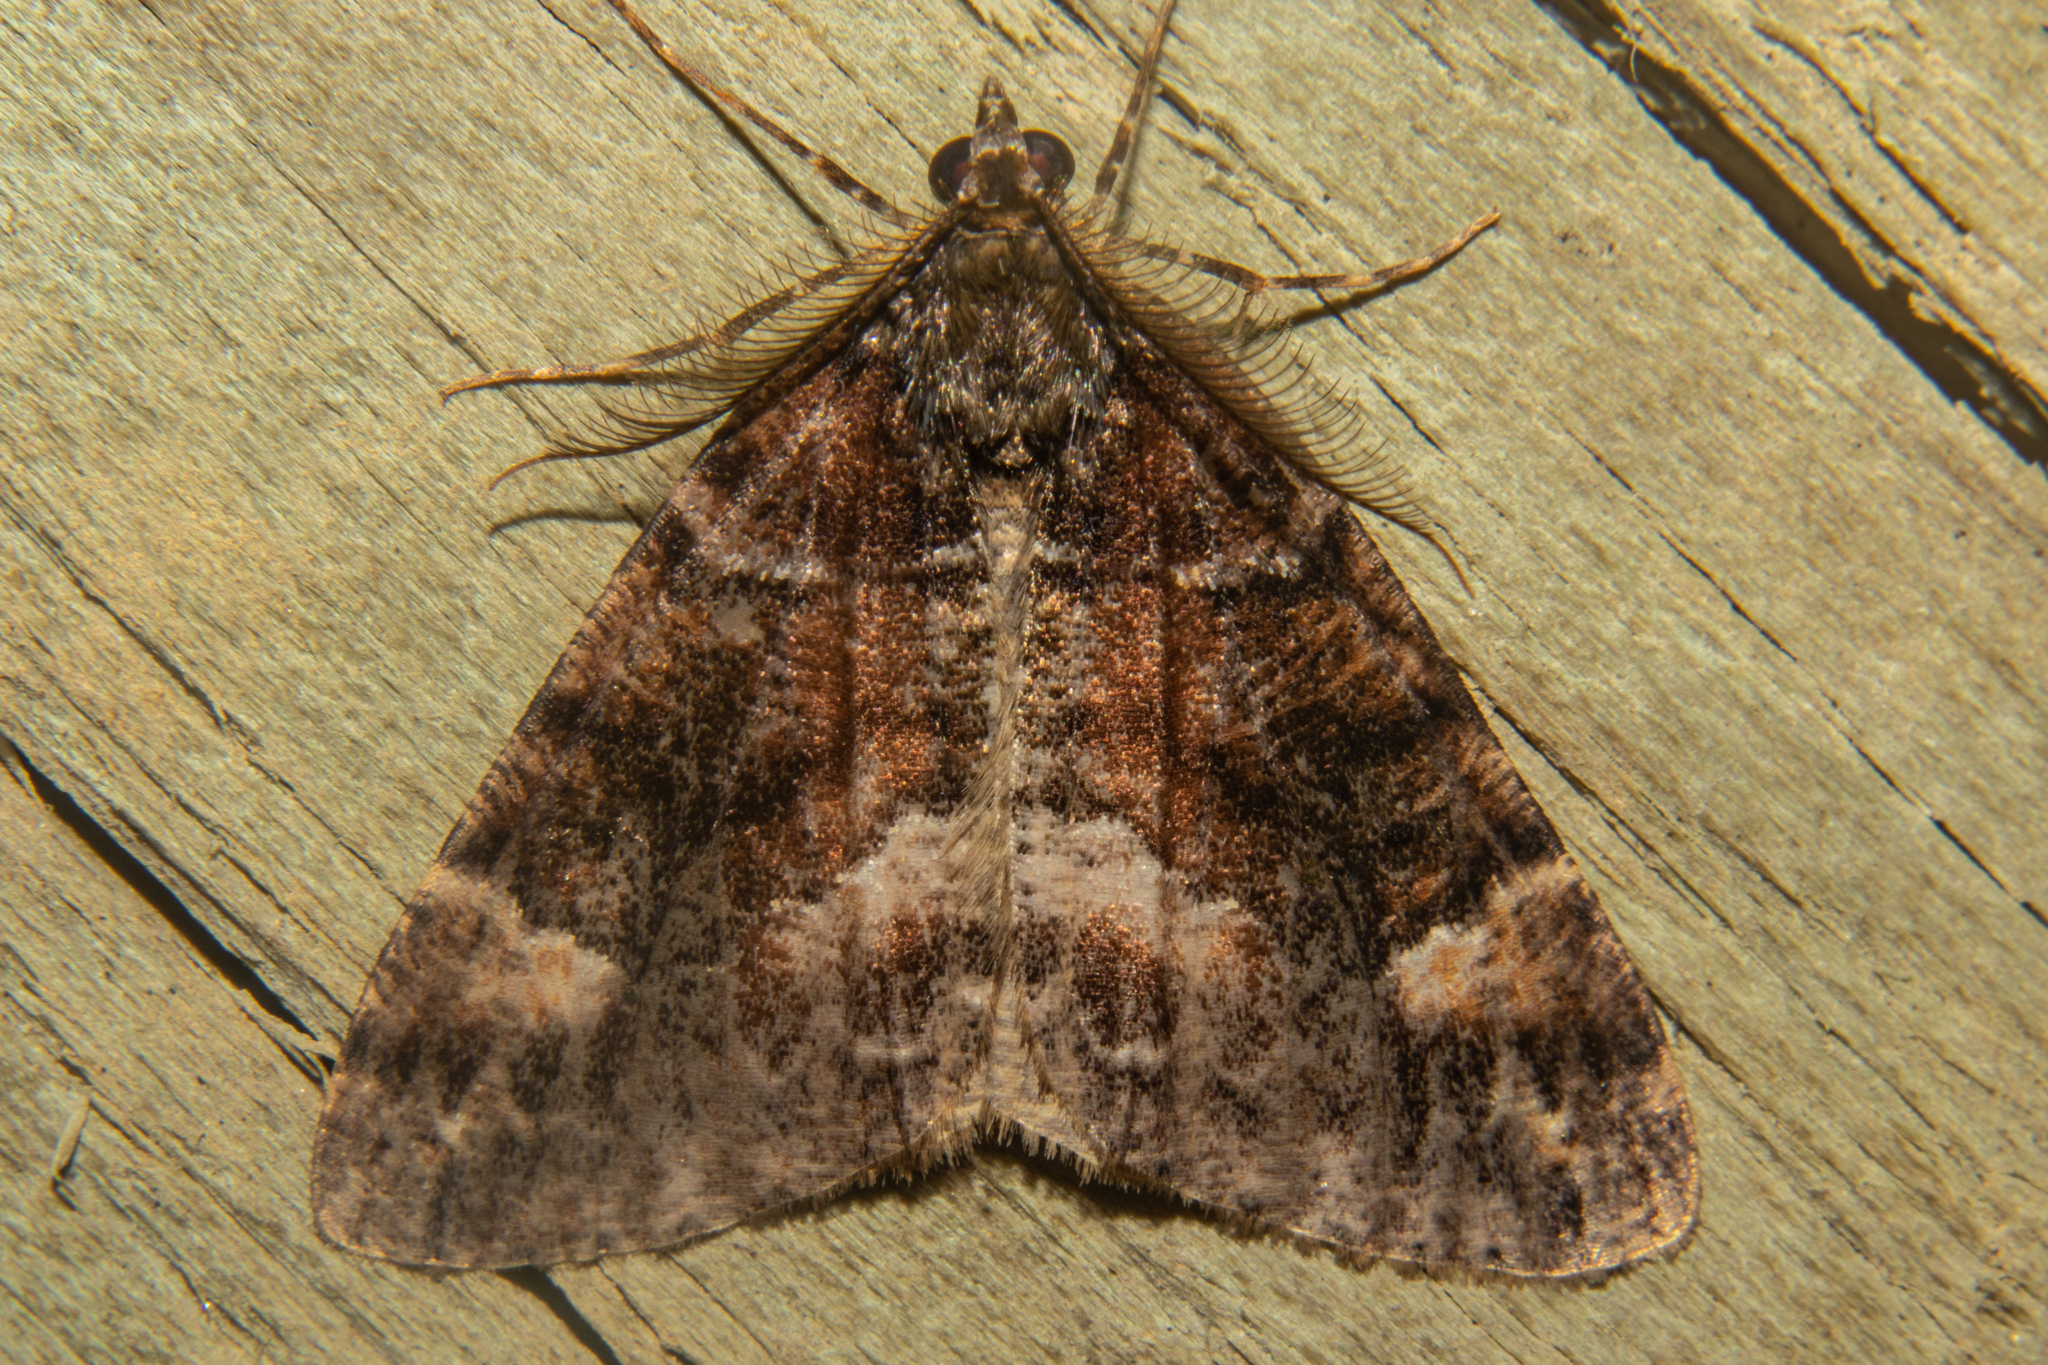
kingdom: Animalia
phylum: Arthropoda
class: Insecta
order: Lepidoptera
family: Geometridae
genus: Pseudocoremia
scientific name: Pseudocoremia productata
